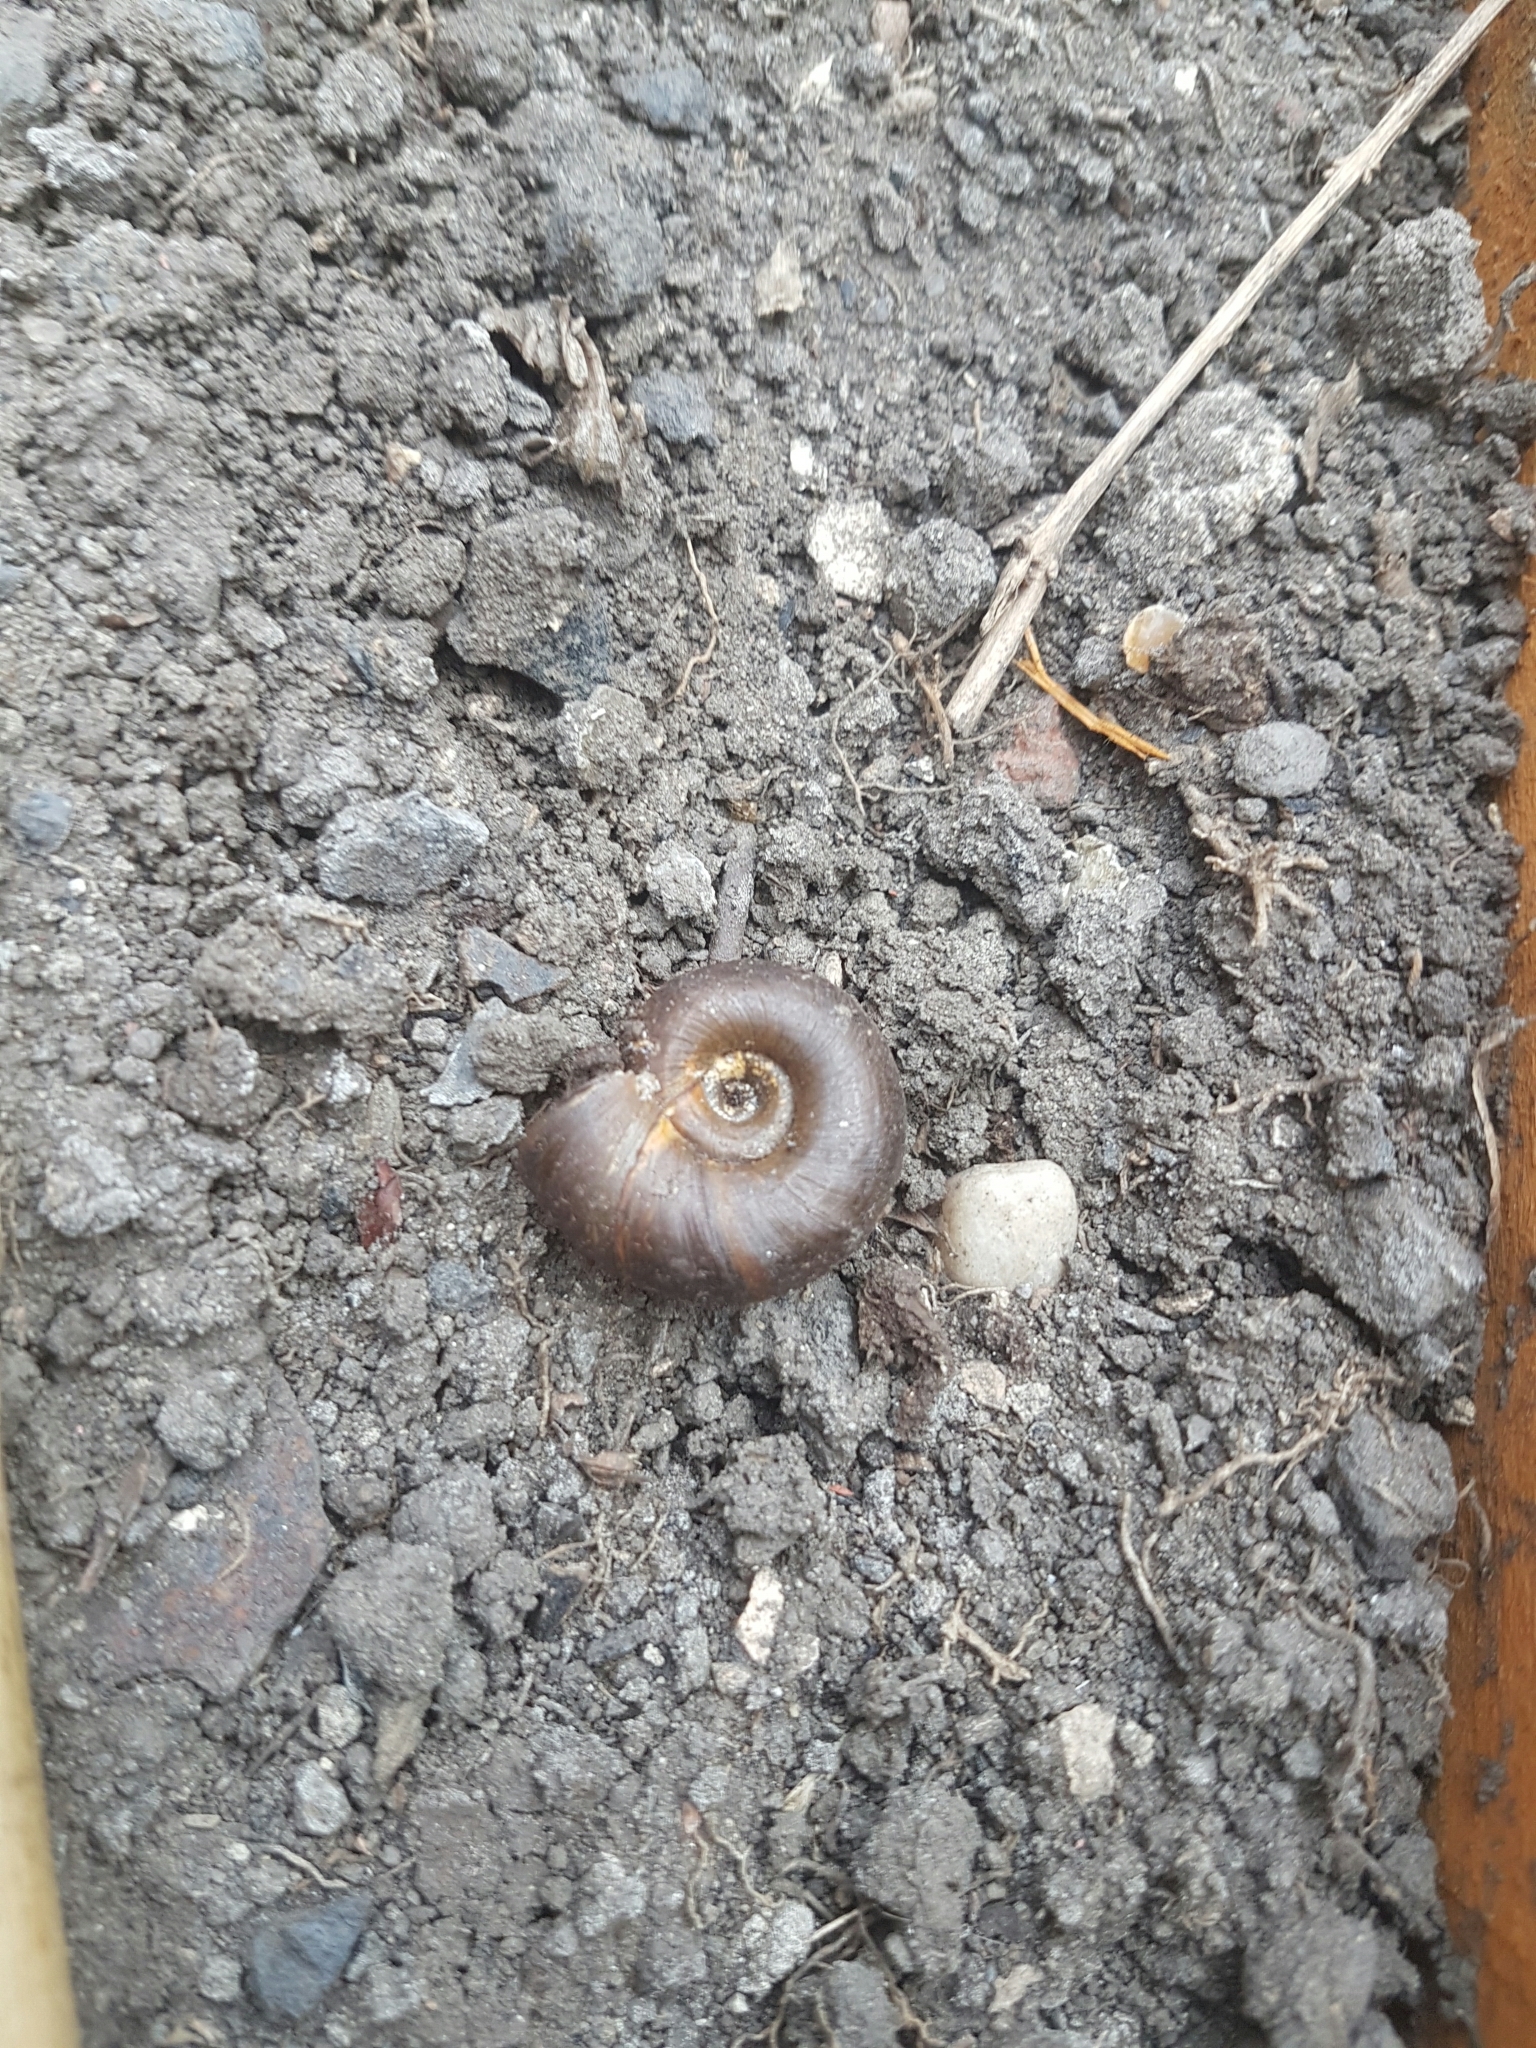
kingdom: Animalia
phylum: Mollusca
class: Gastropoda
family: Planorbidae
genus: Planorbarius
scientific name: Planorbarius corneus
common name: Great ramshorn
